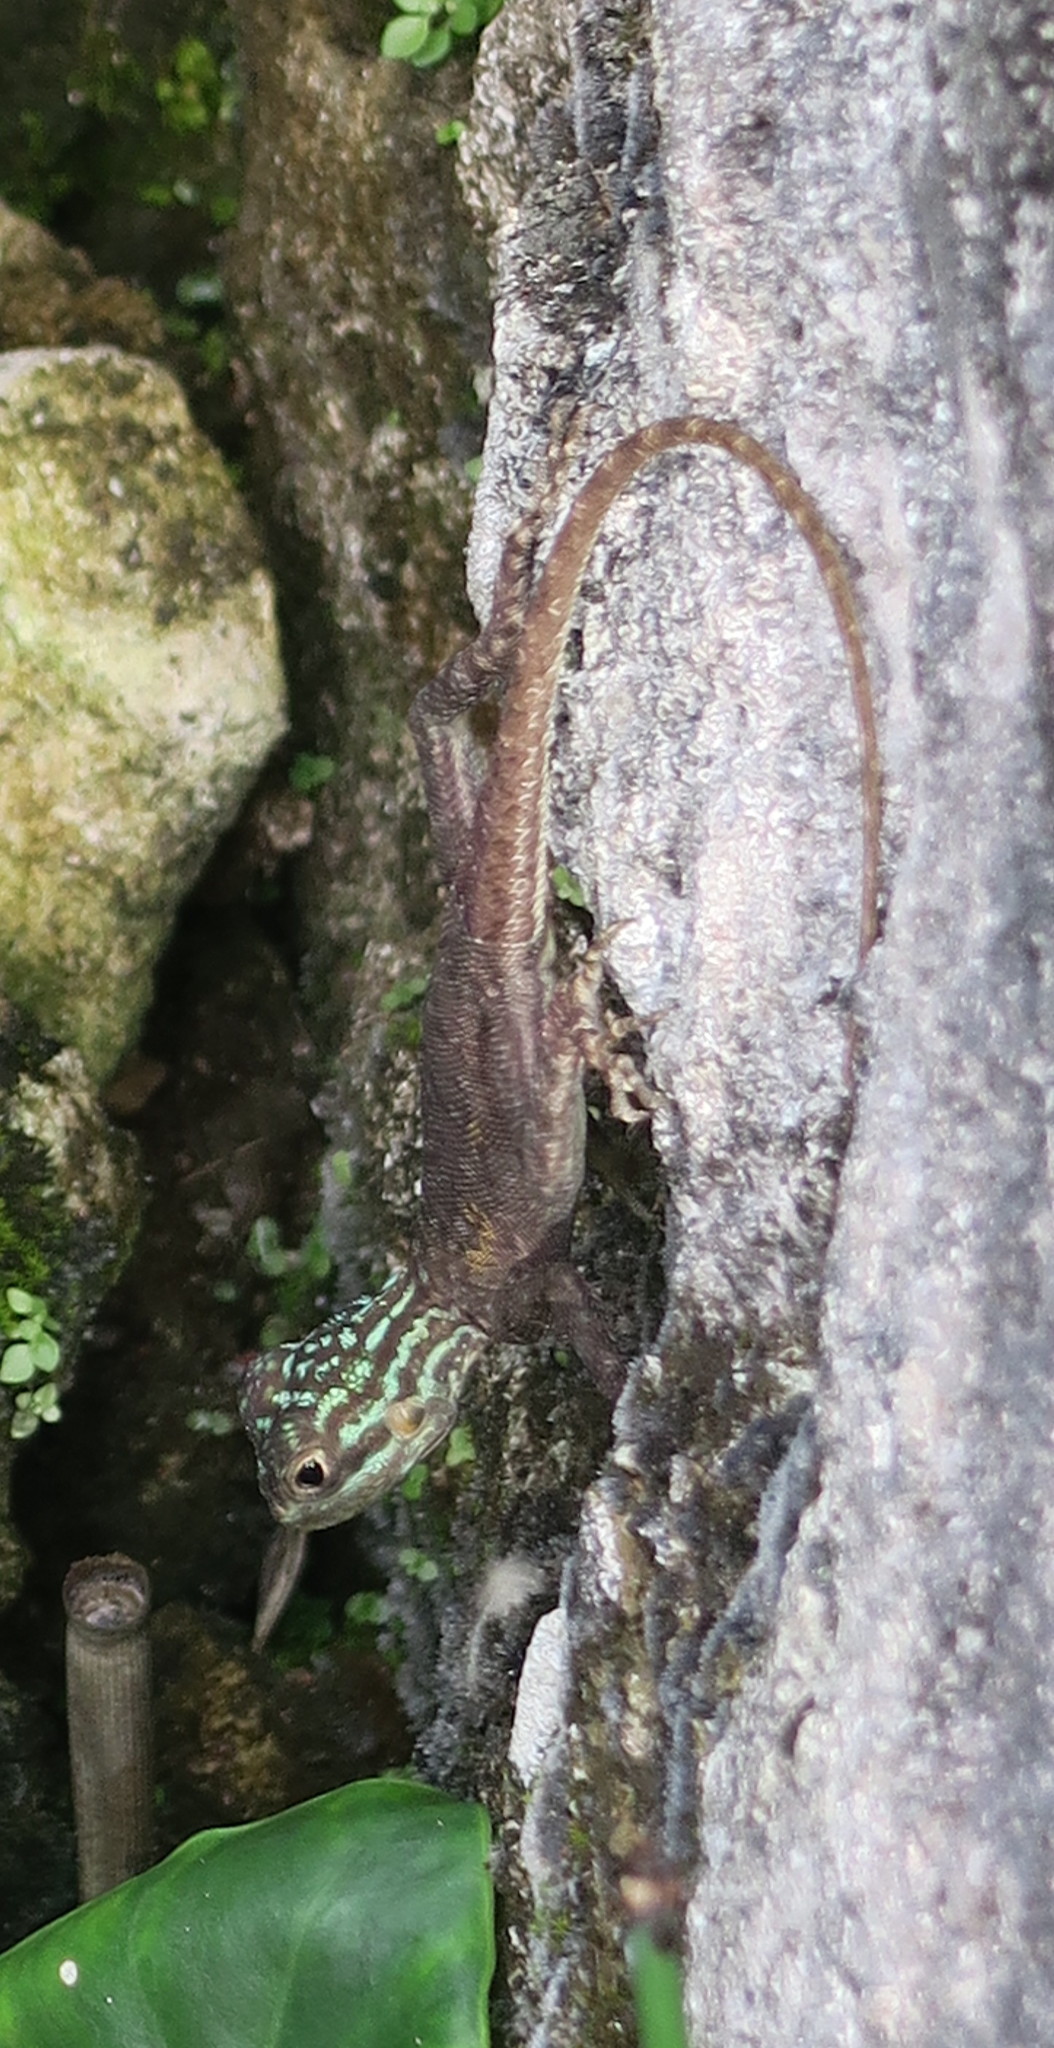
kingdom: Animalia
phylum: Chordata
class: Squamata
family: Agamidae
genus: Agama
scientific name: Agama picticauda
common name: Red-headed agama
